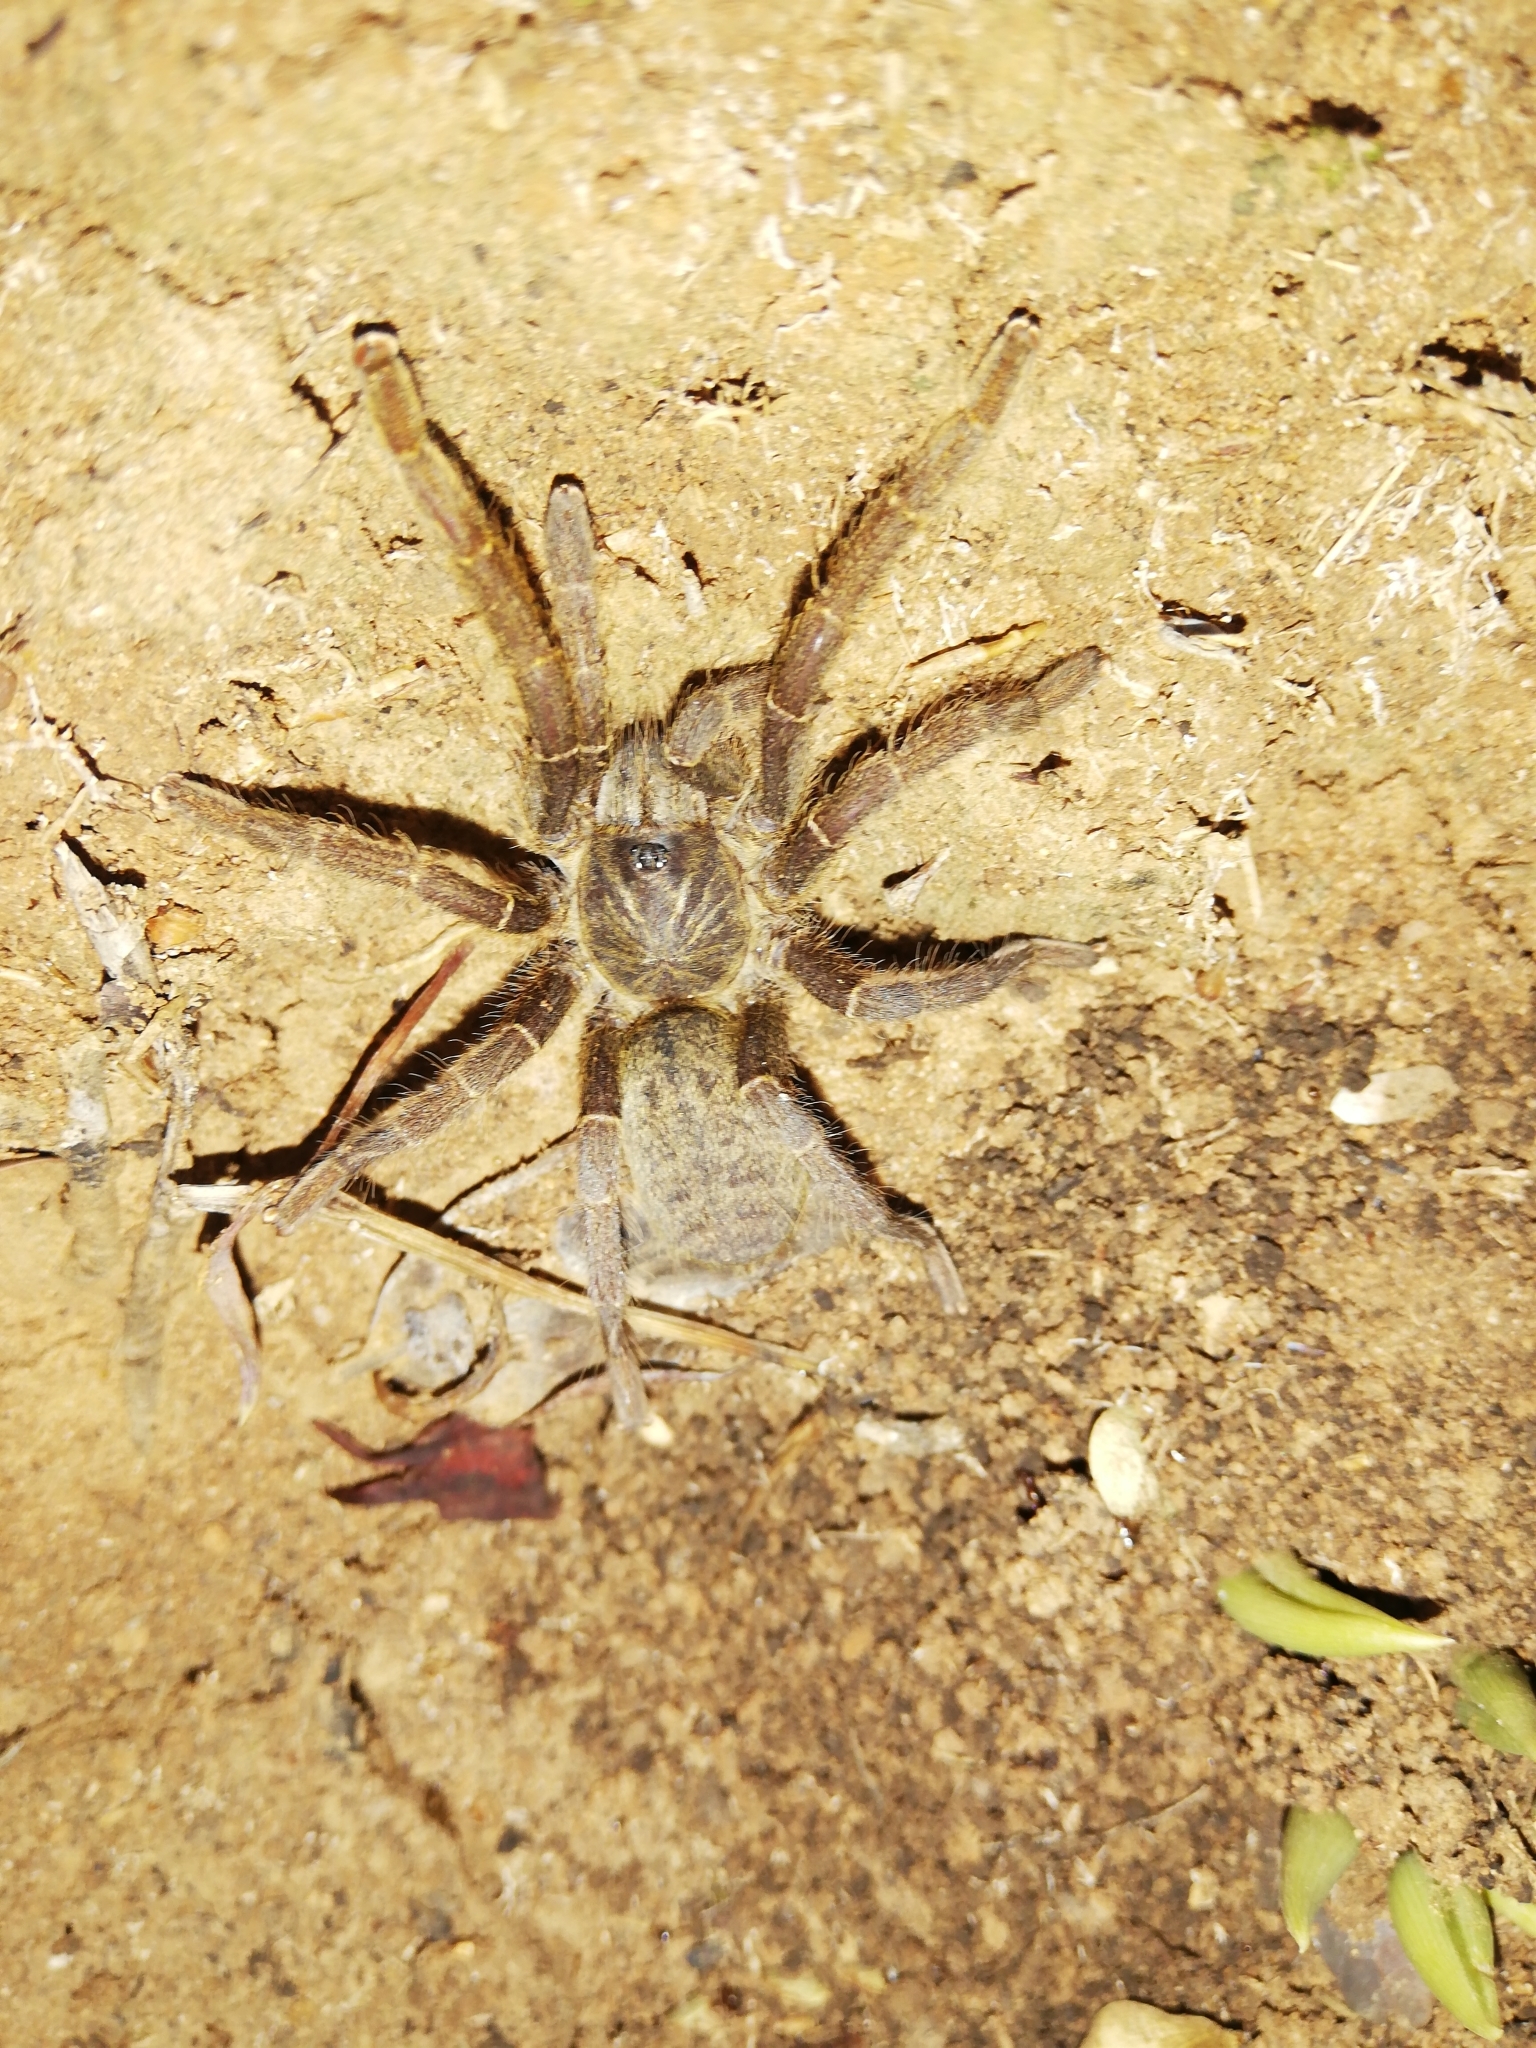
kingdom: Animalia
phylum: Arthropoda
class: Arachnida
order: Araneae
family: Theraphosidae
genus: Harpactira
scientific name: Harpactira tigrina
